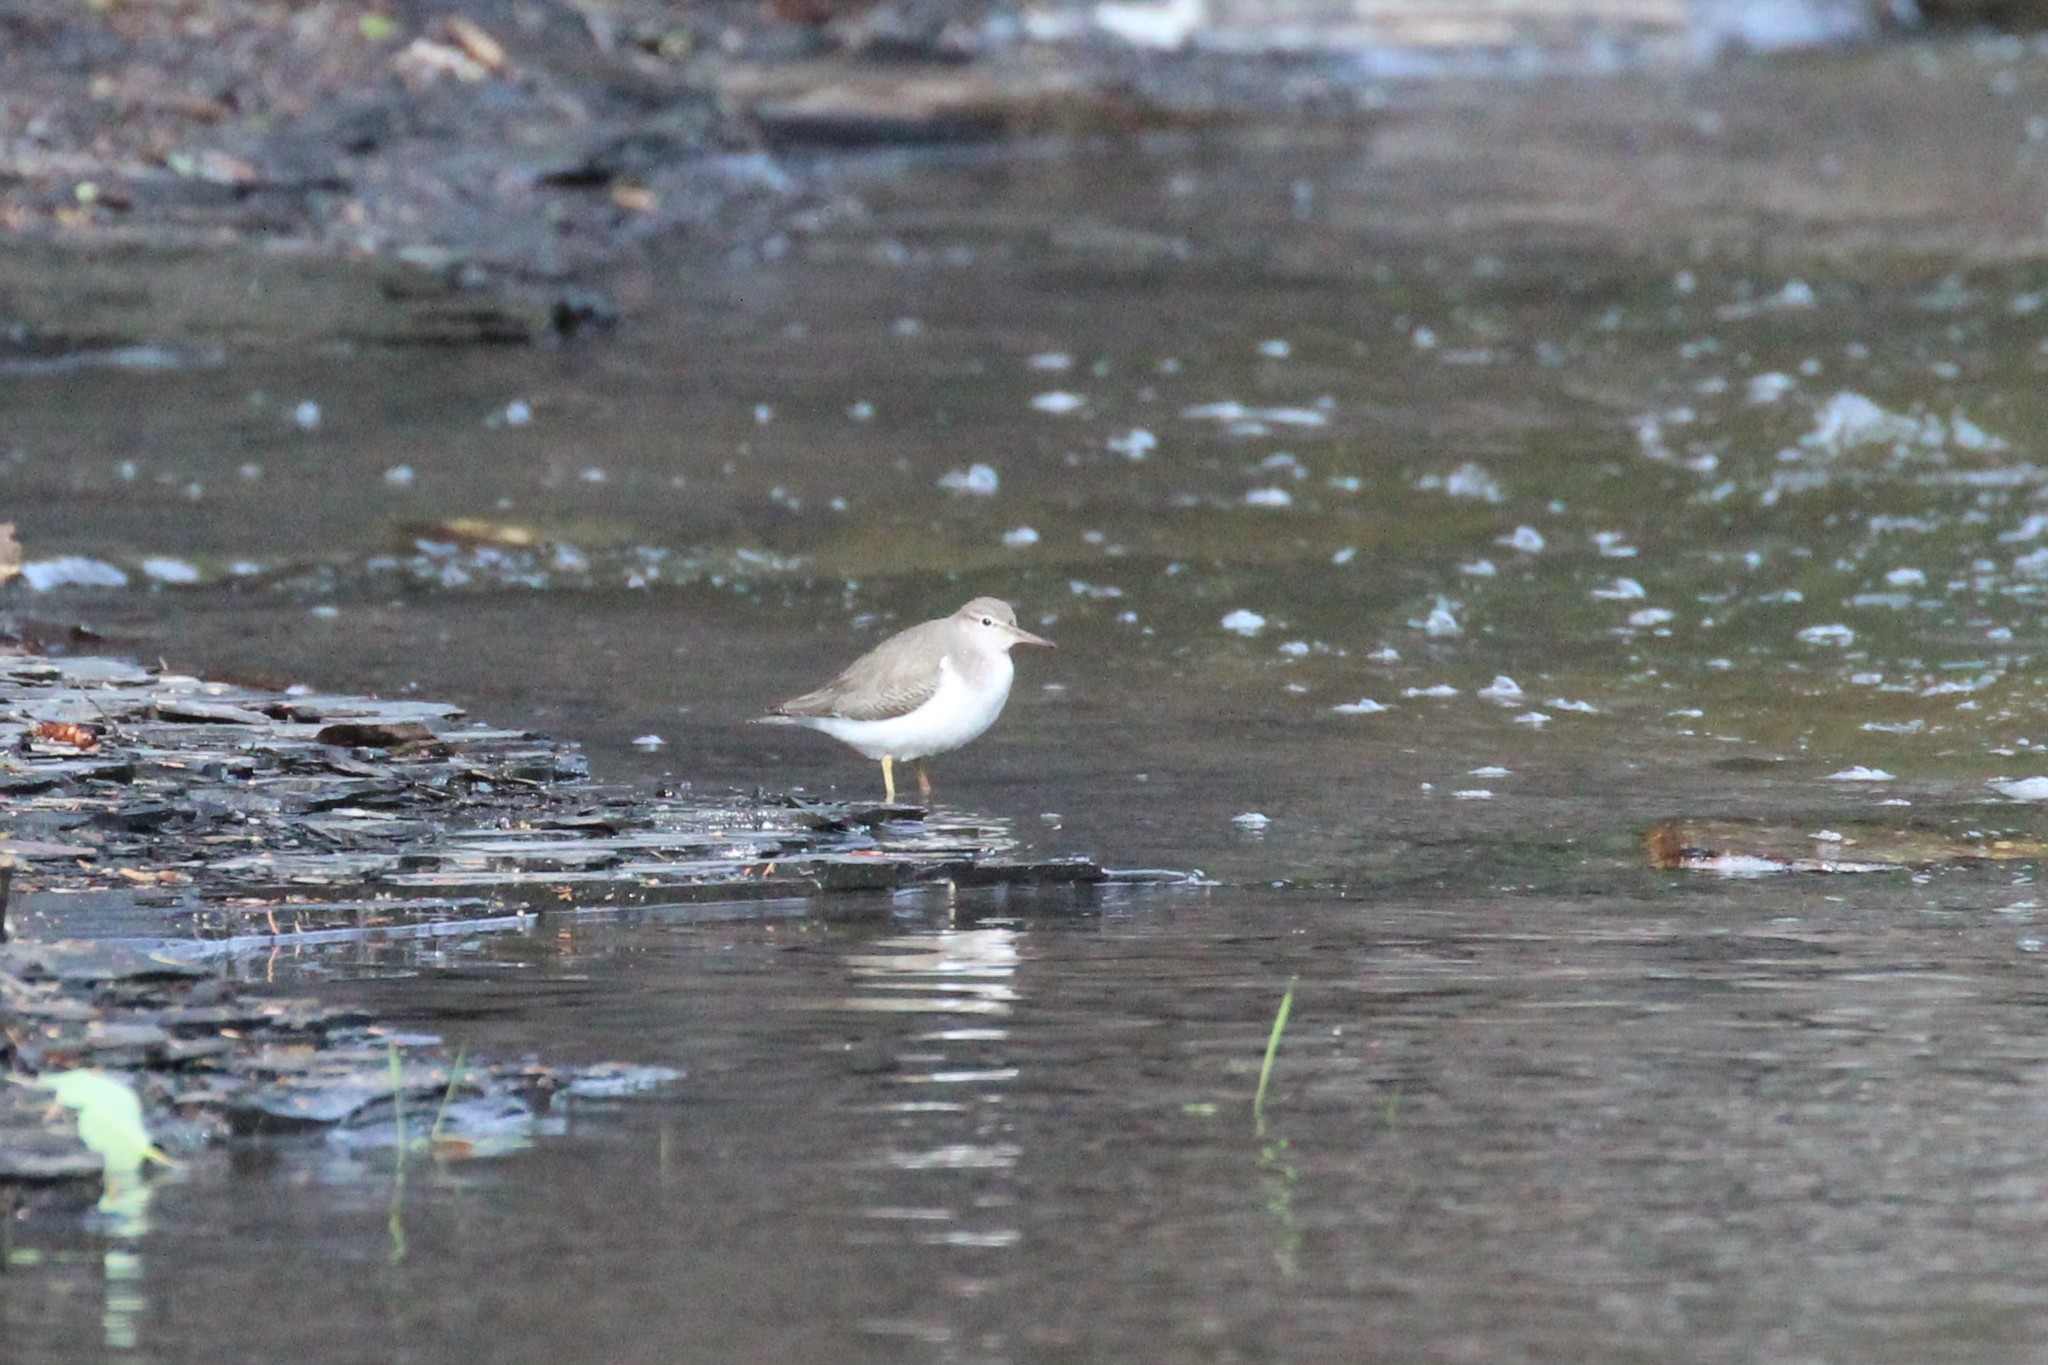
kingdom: Animalia
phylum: Chordata
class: Aves
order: Charadriiformes
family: Scolopacidae
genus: Actitis
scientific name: Actitis macularius
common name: Spotted sandpiper
